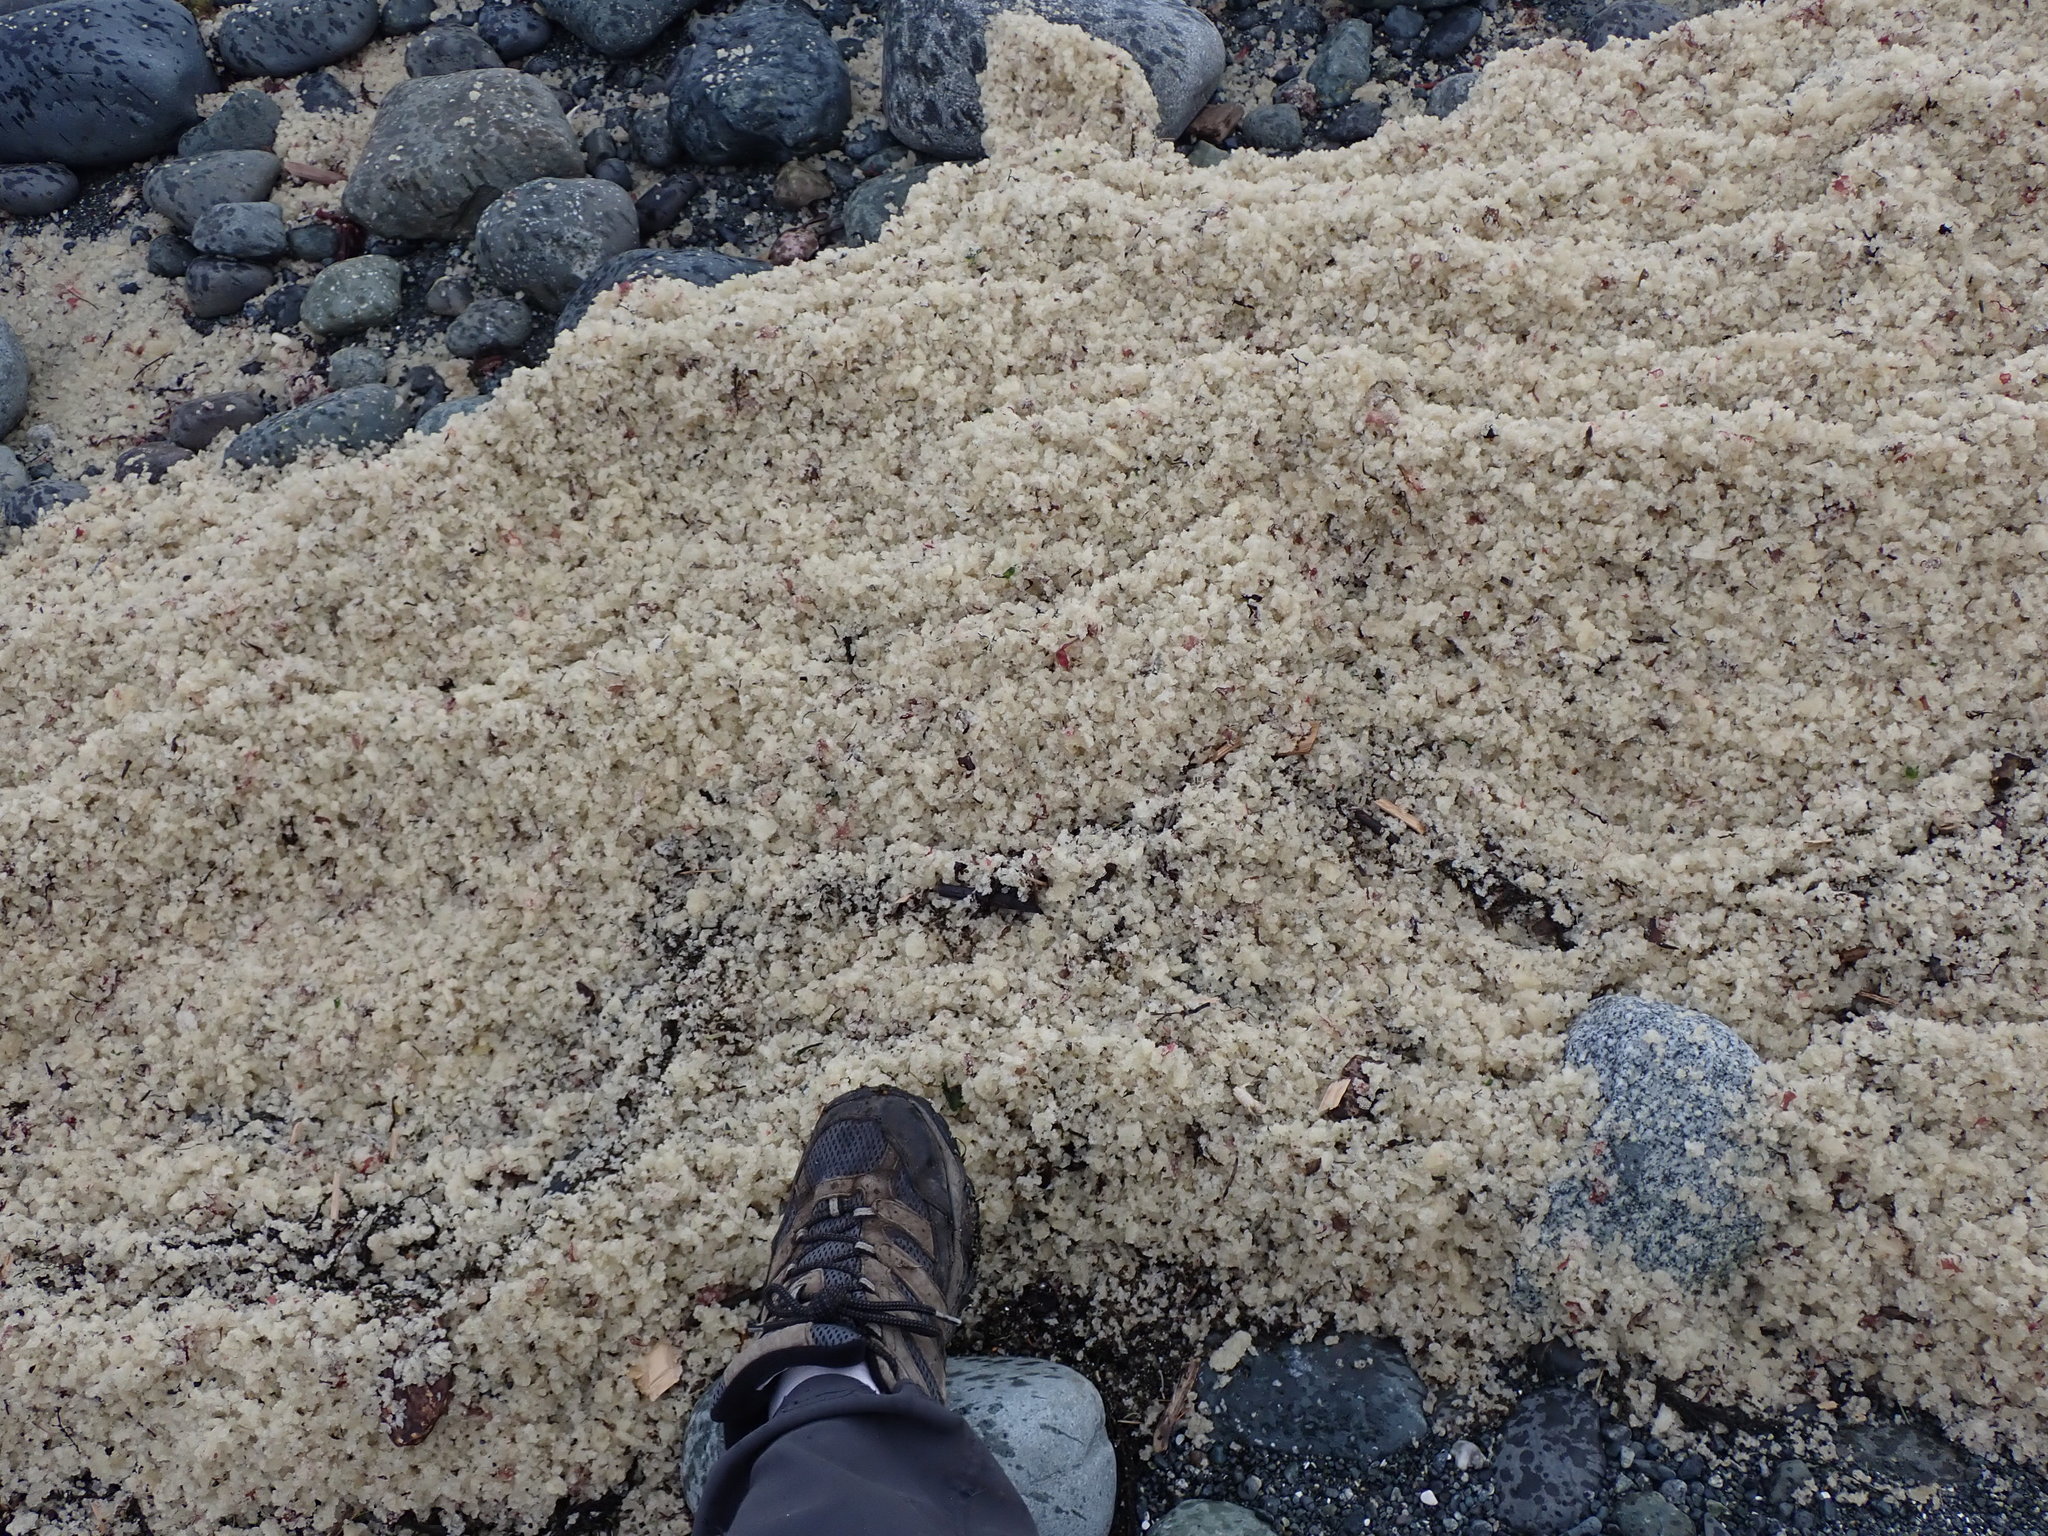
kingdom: Animalia
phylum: Chordata
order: Clupeiformes
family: Clupeidae
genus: Clupea
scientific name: Clupea pallasii
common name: Pacific herring
